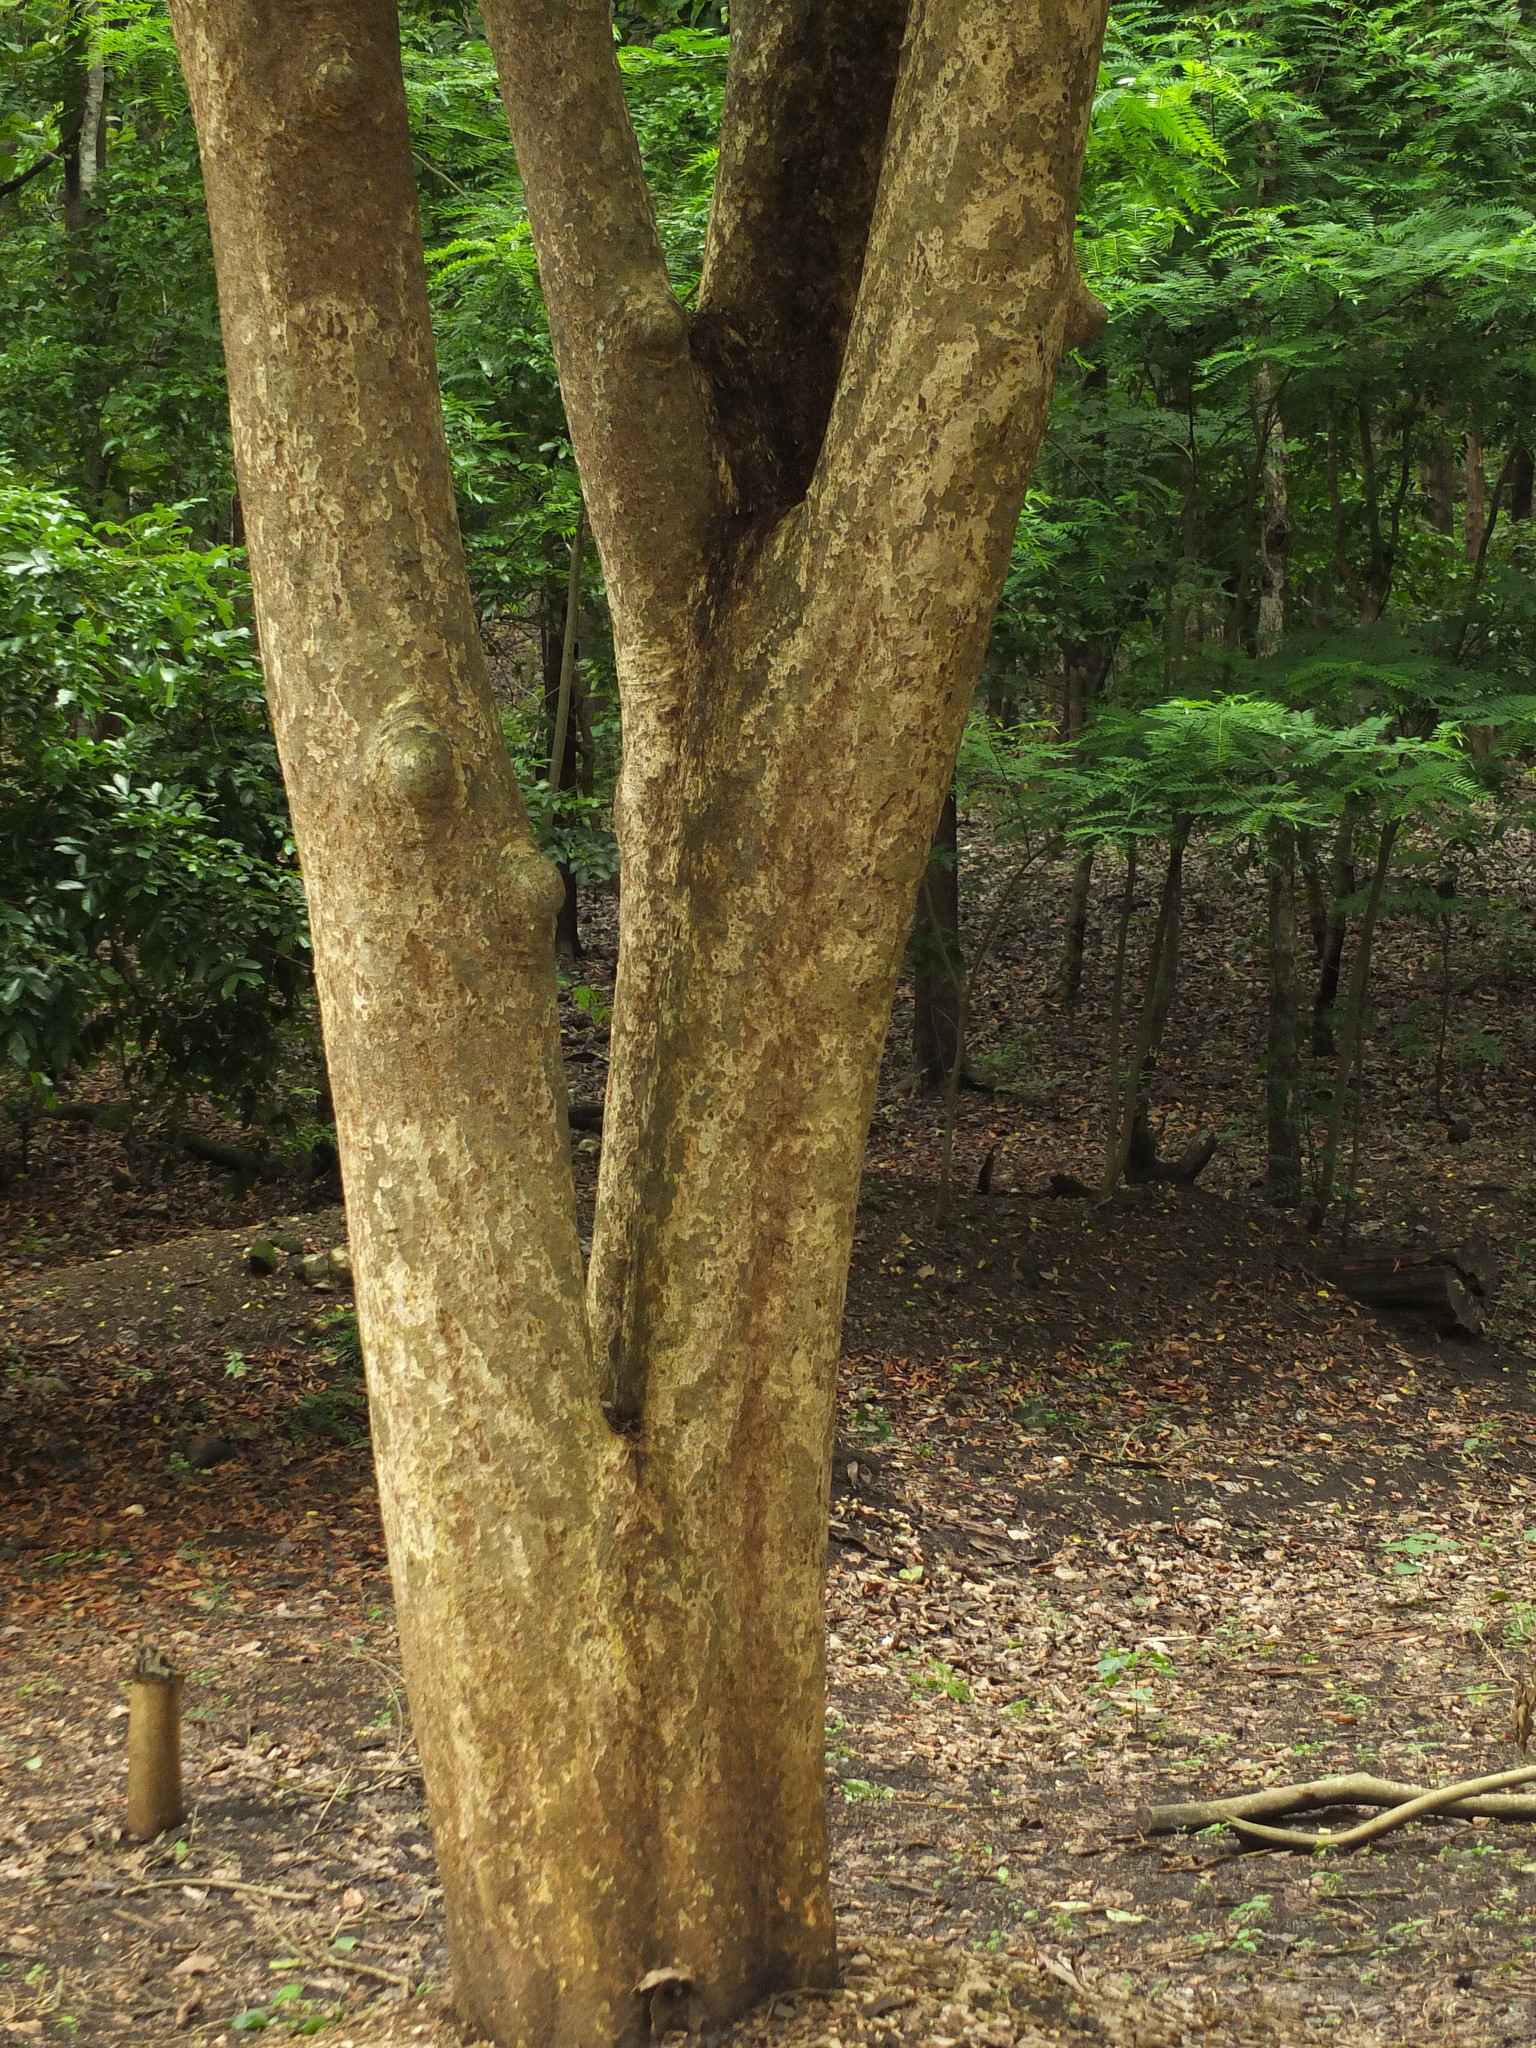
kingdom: Plantae
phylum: Tracheophyta
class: Magnoliopsida
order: Malpighiales
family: Euphorbiaceae
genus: Mallotus
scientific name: Mallotus nudiflorus
